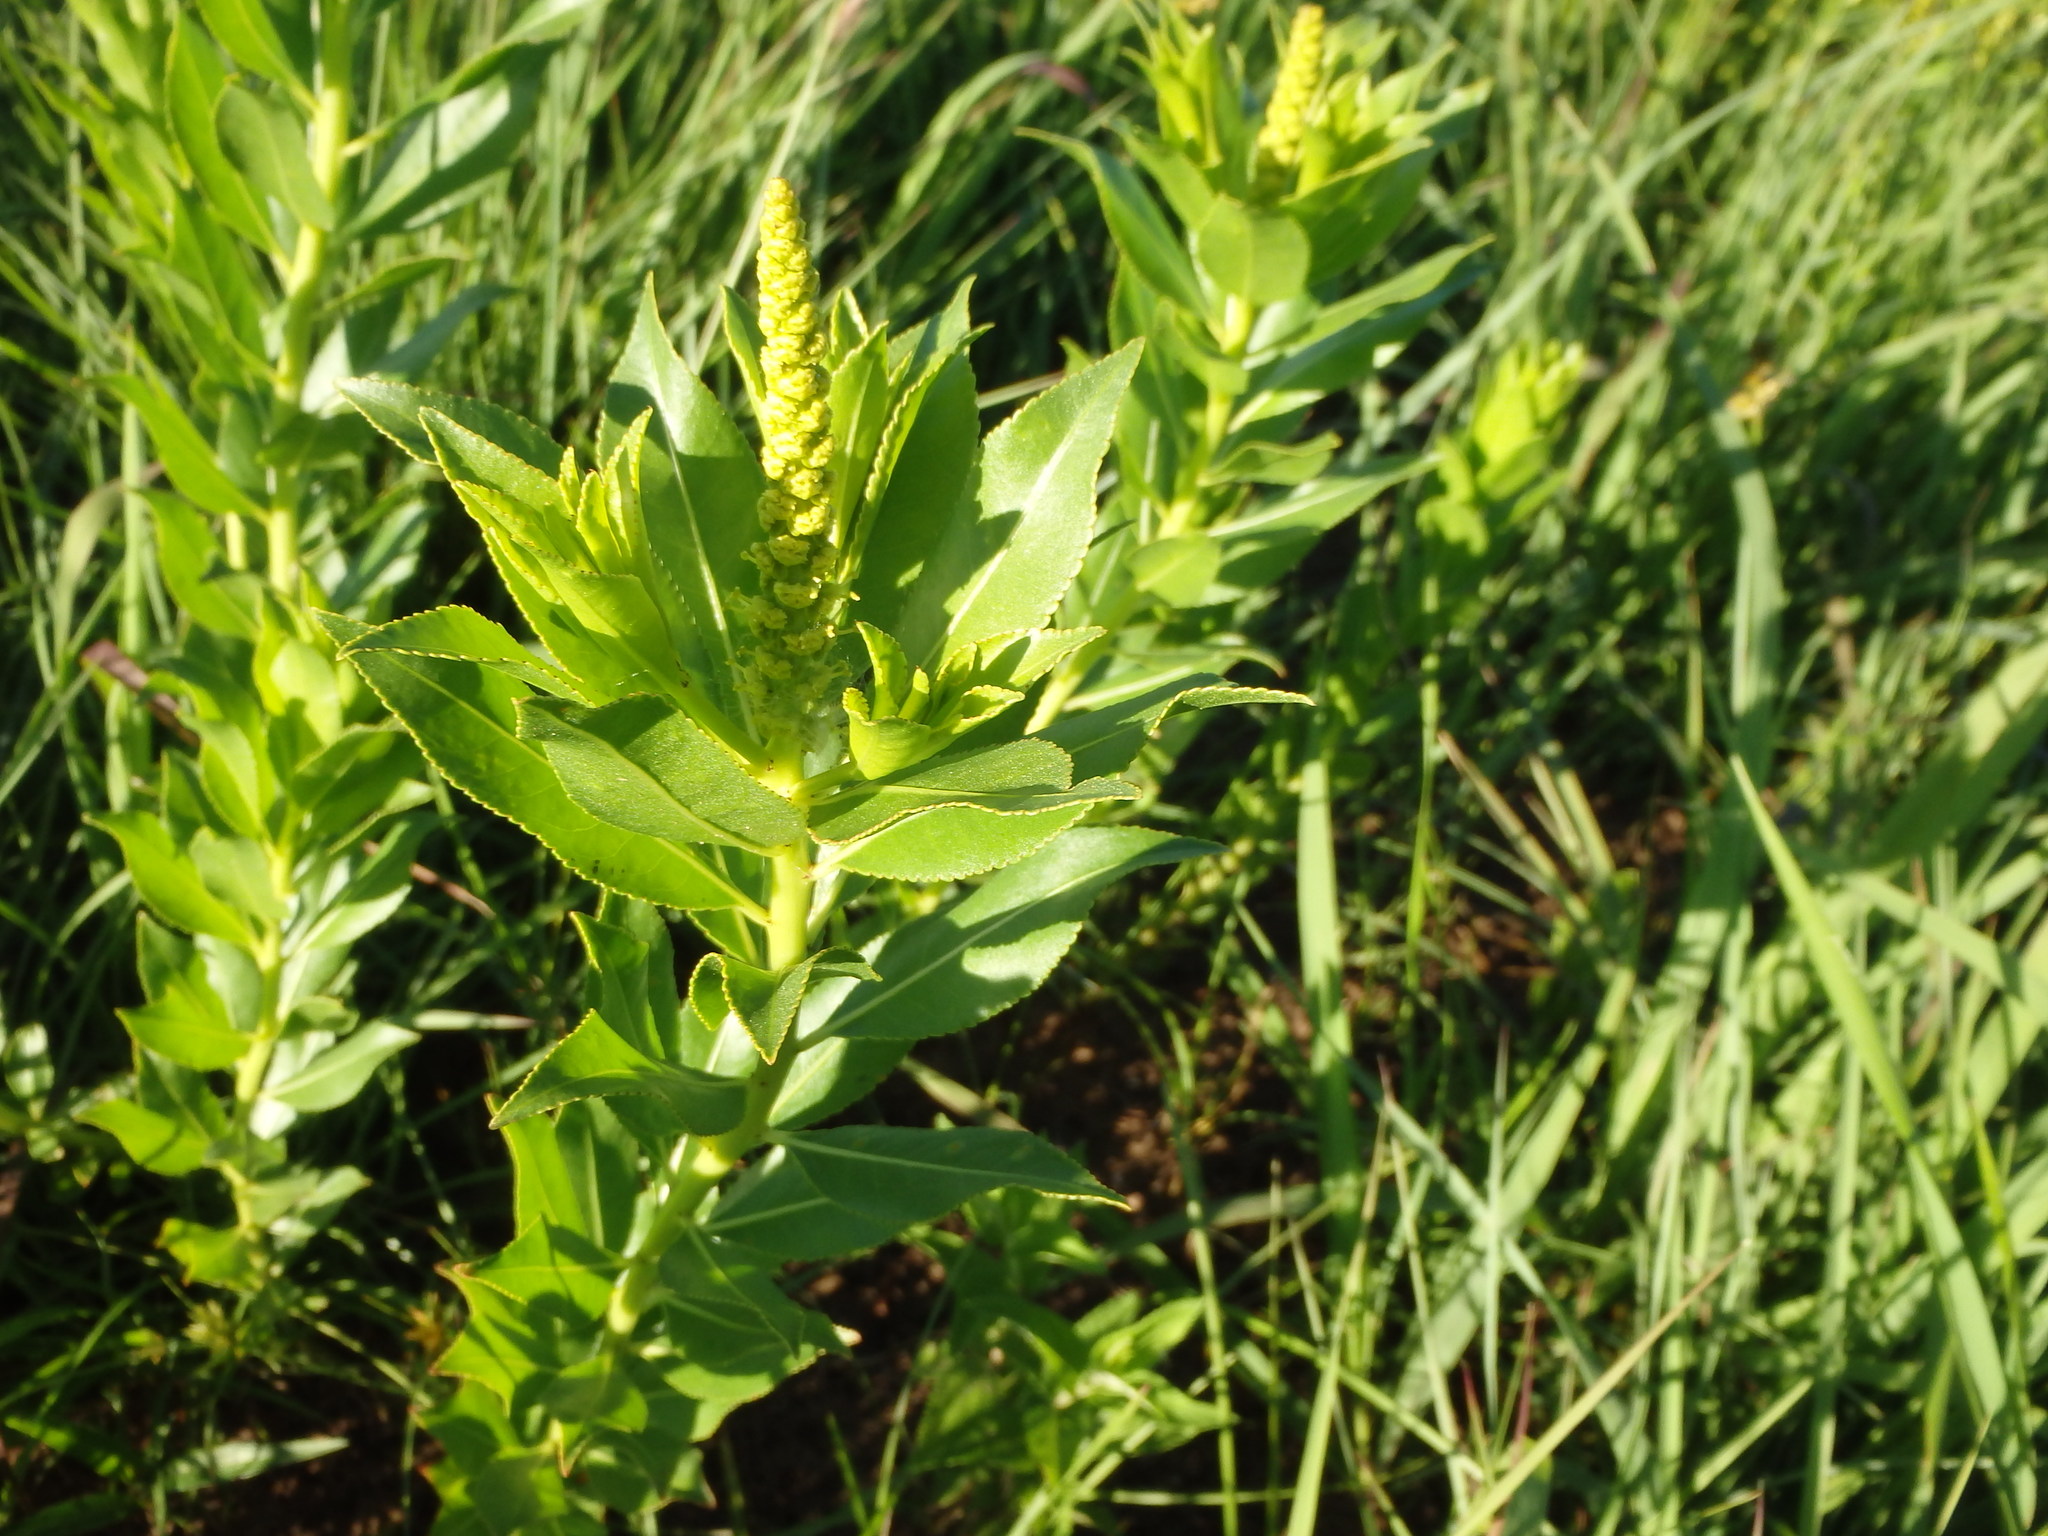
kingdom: Plantae
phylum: Tracheophyta
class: Magnoliopsida
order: Malpighiales
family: Euphorbiaceae
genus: Stillingia
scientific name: Stillingia sylvatica
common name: Queen's-delight
